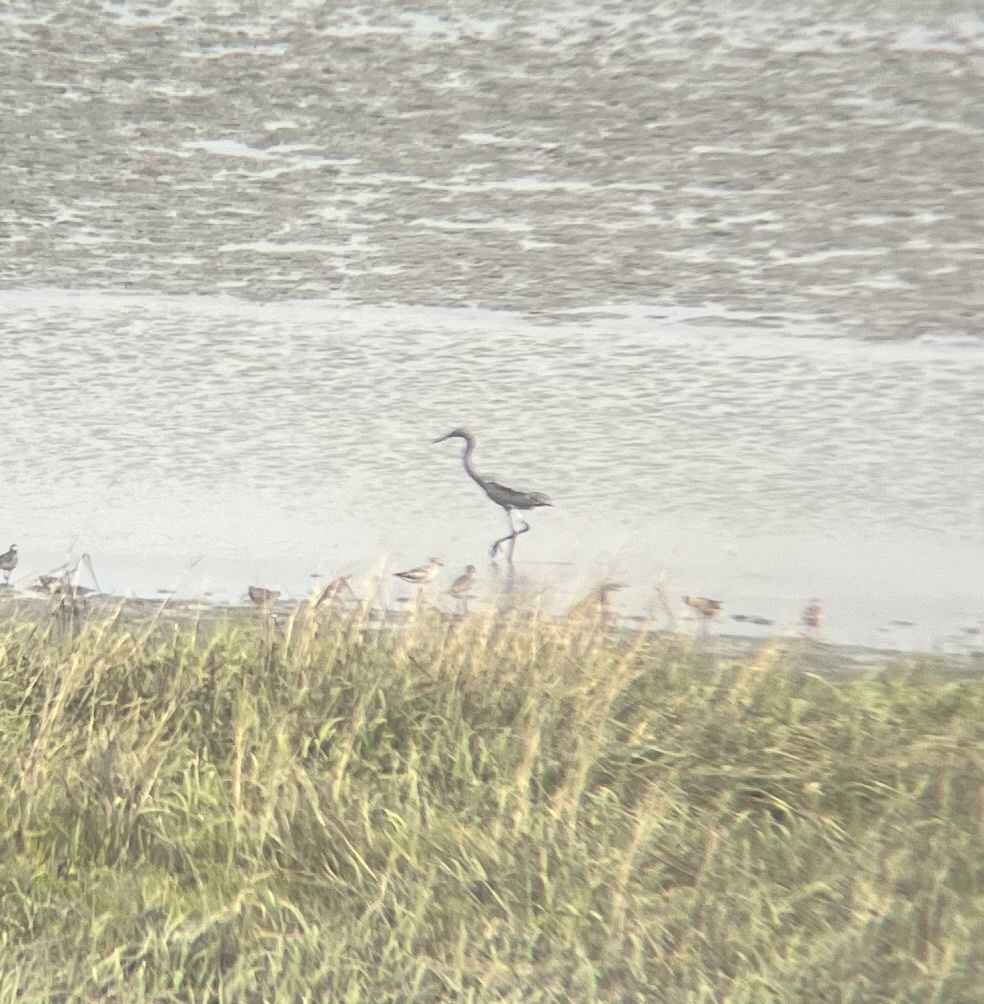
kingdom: Animalia
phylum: Chordata
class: Aves
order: Pelecaniformes
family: Ardeidae
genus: Egretta
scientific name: Egretta rufescens
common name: Reddish egret
